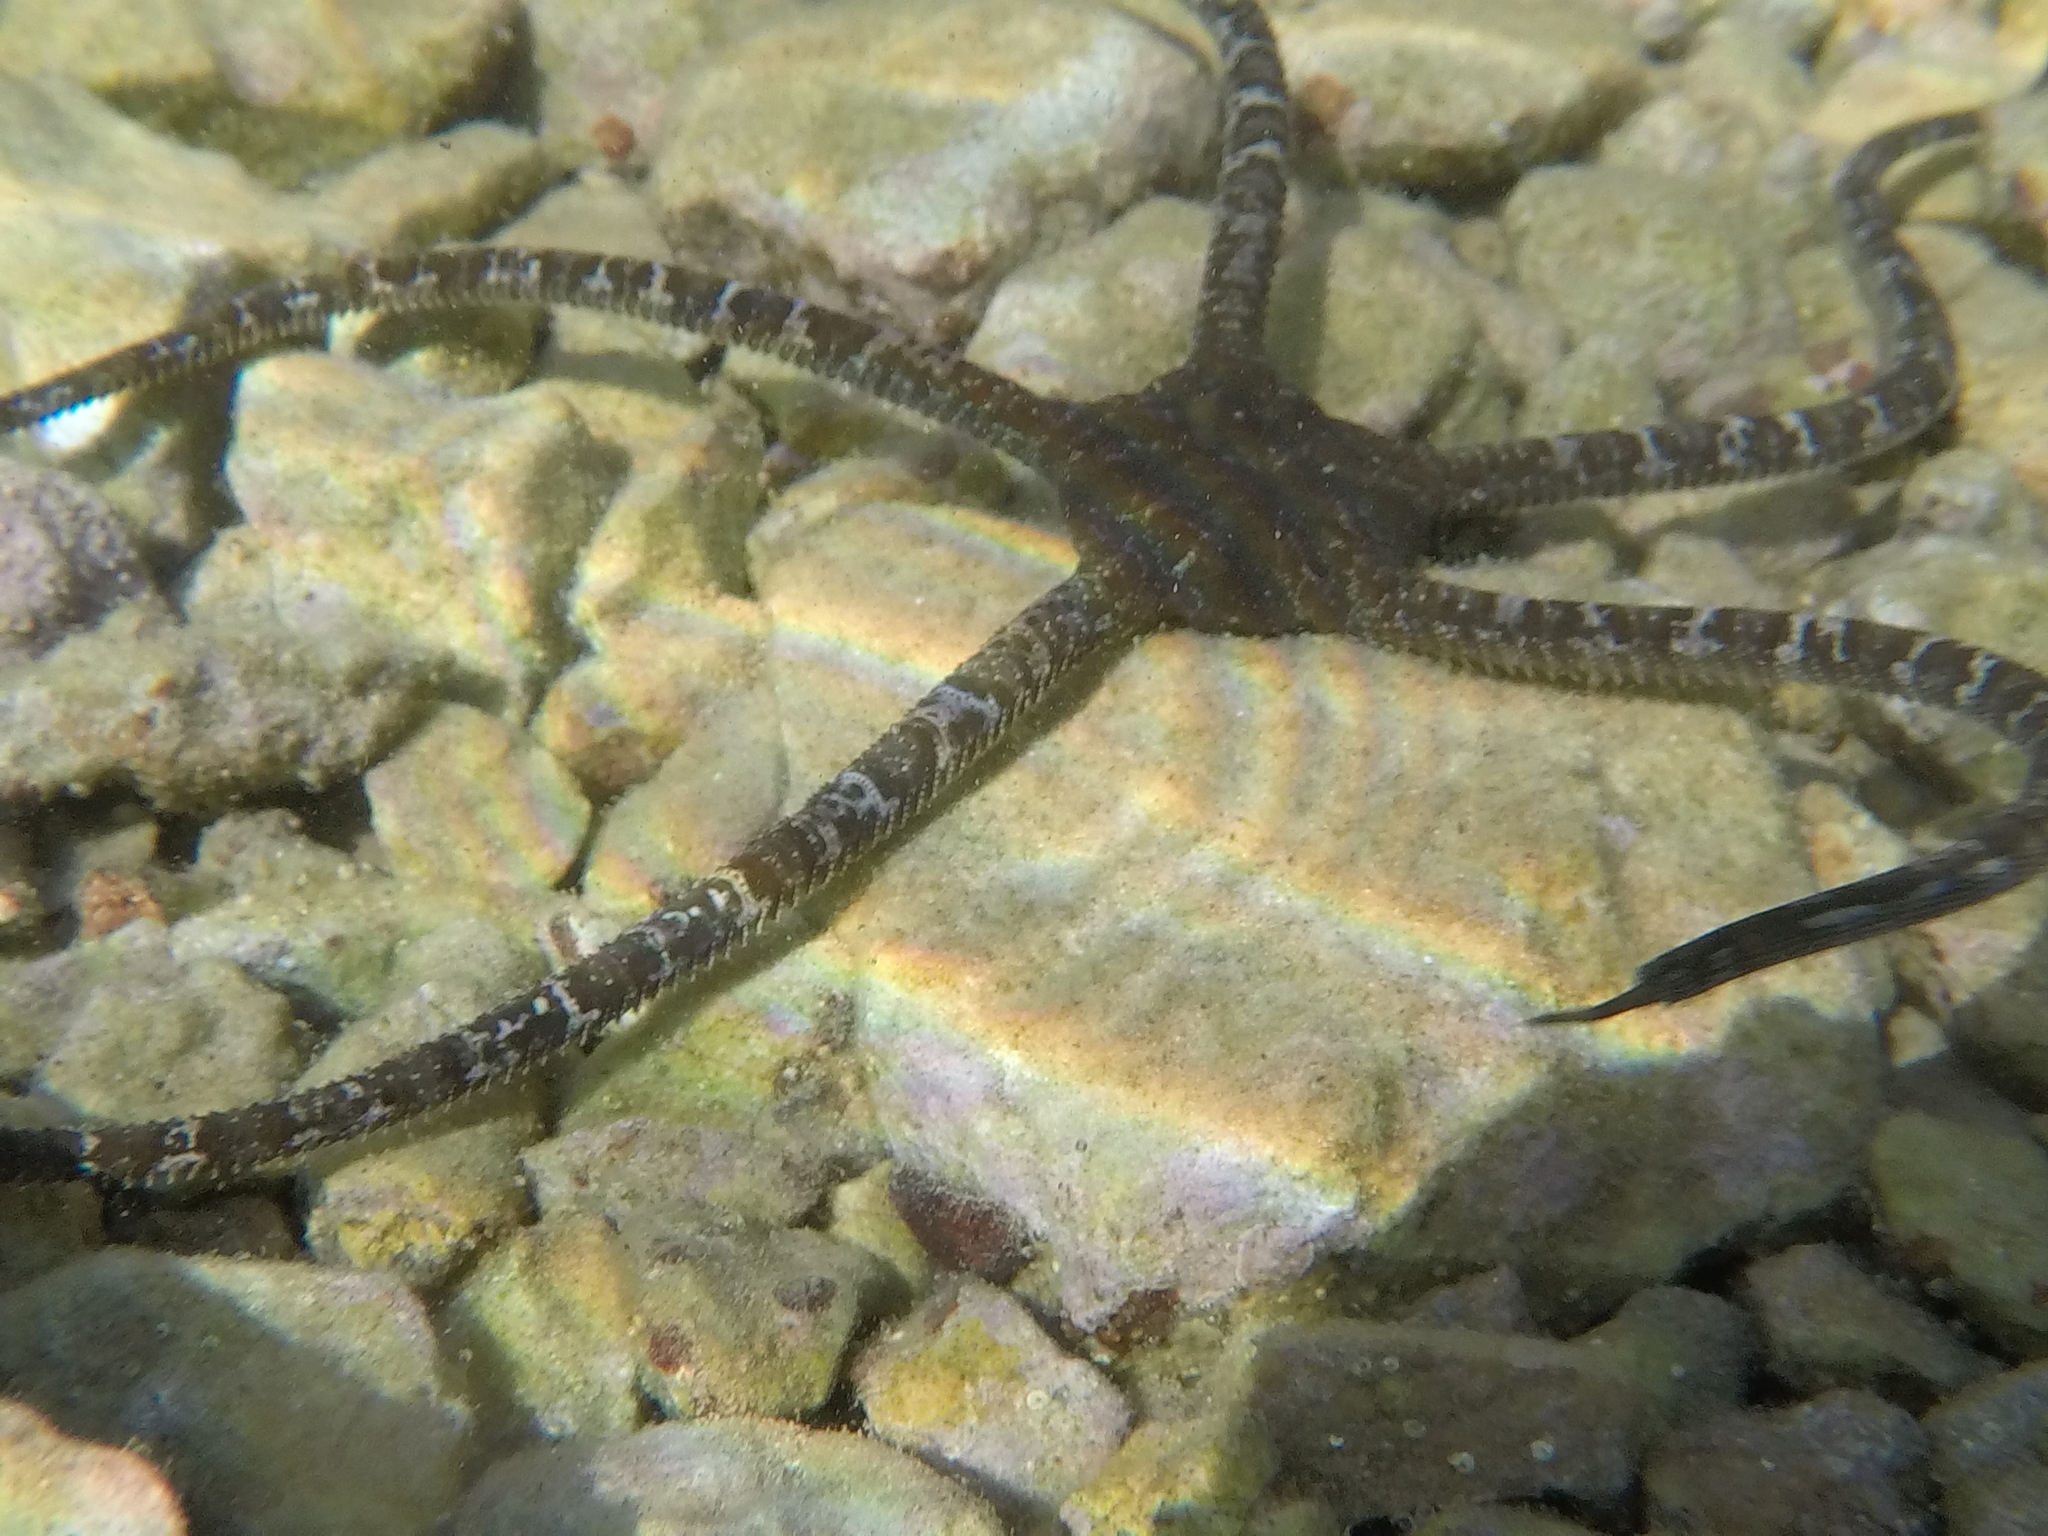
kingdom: Animalia
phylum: Echinodermata
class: Ophiuroidea
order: Ophiacanthida
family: Ophiodermatidae
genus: Ophioderma
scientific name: Ophioderma longicaudum
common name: Smooth brittle-star
